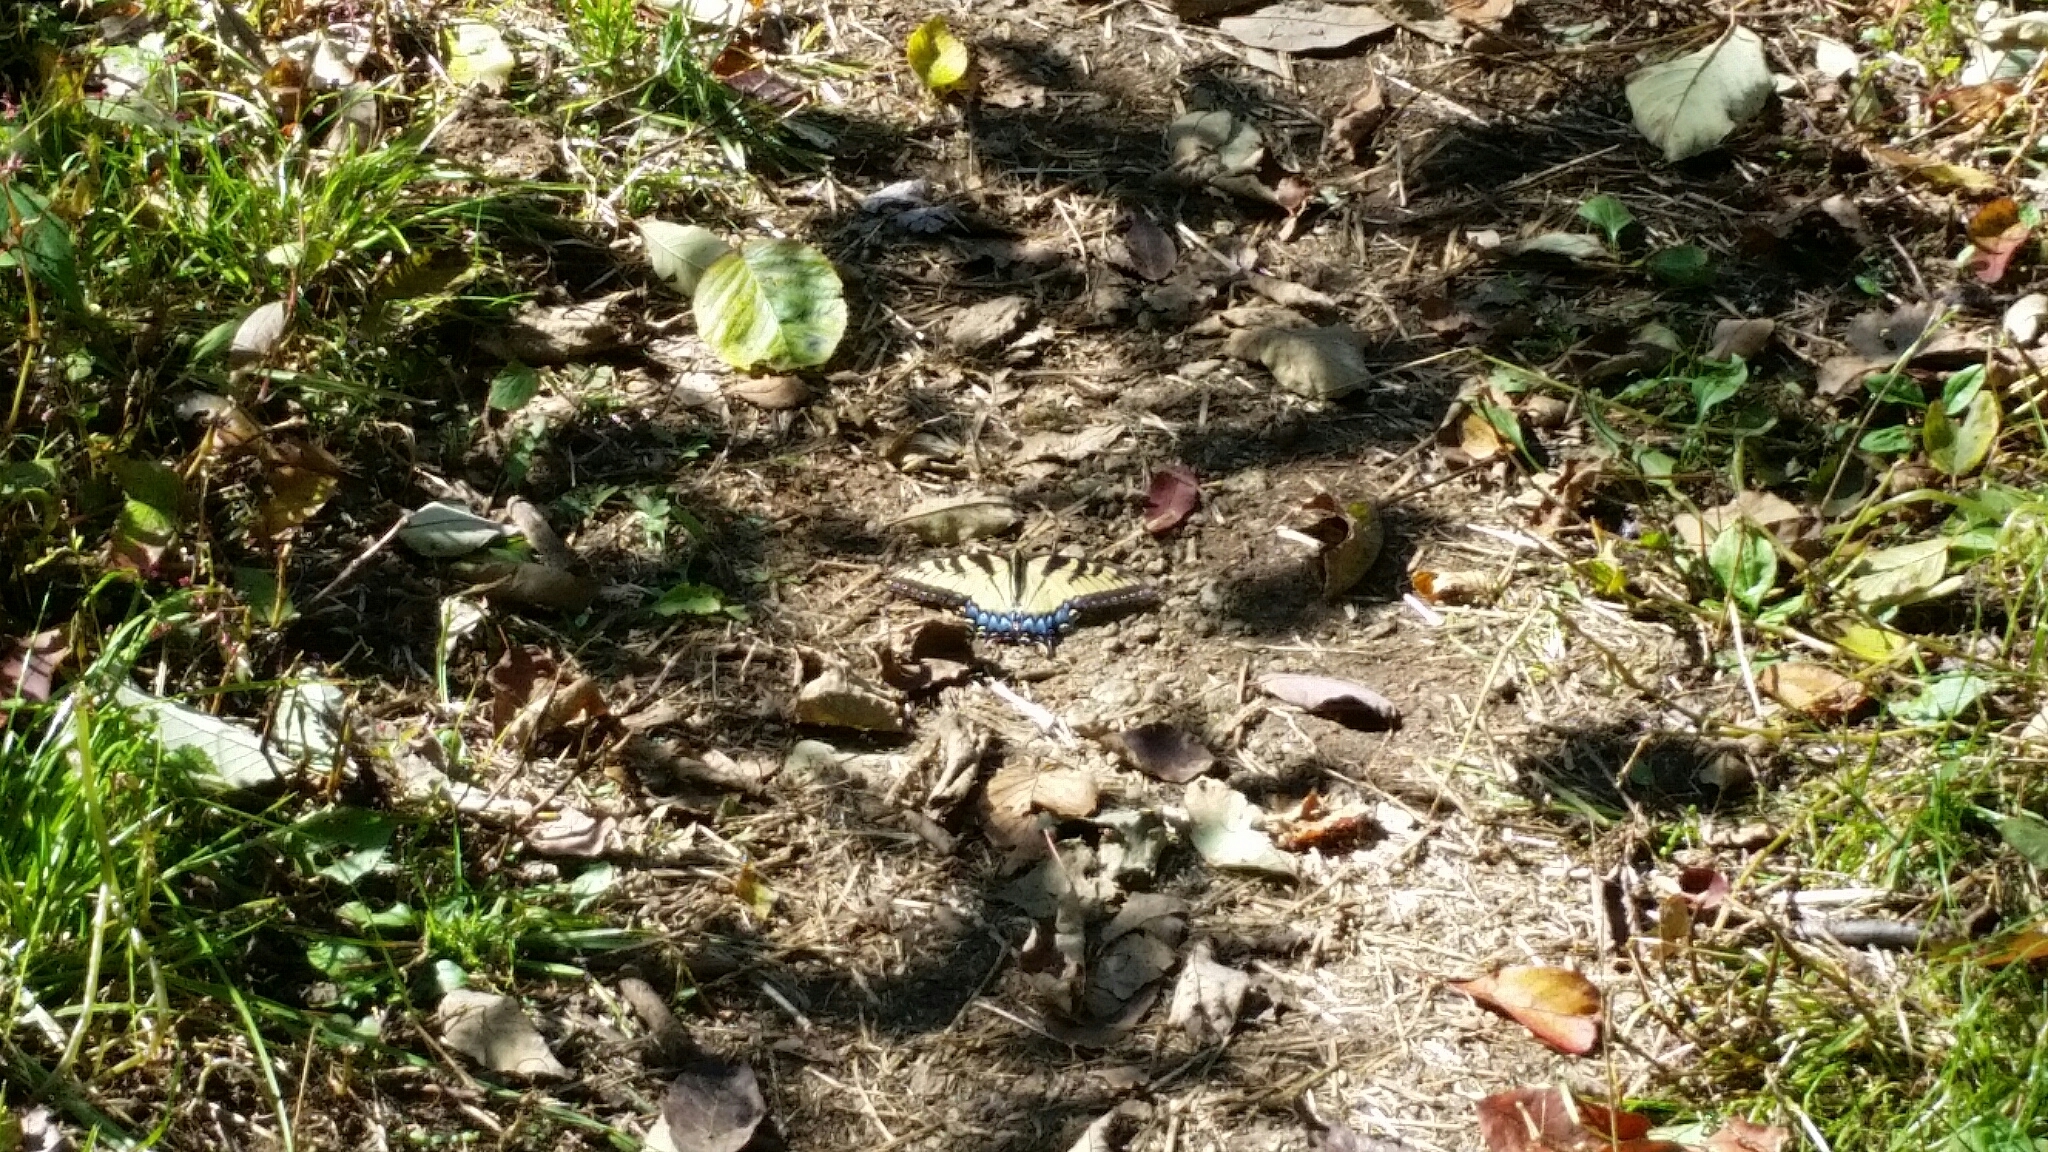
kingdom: Animalia
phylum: Arthropoda
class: Insecta
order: Lepidoptera
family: Papilionidae
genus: Papilio
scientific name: Papilio glaucus
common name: Tiger swallowtail
